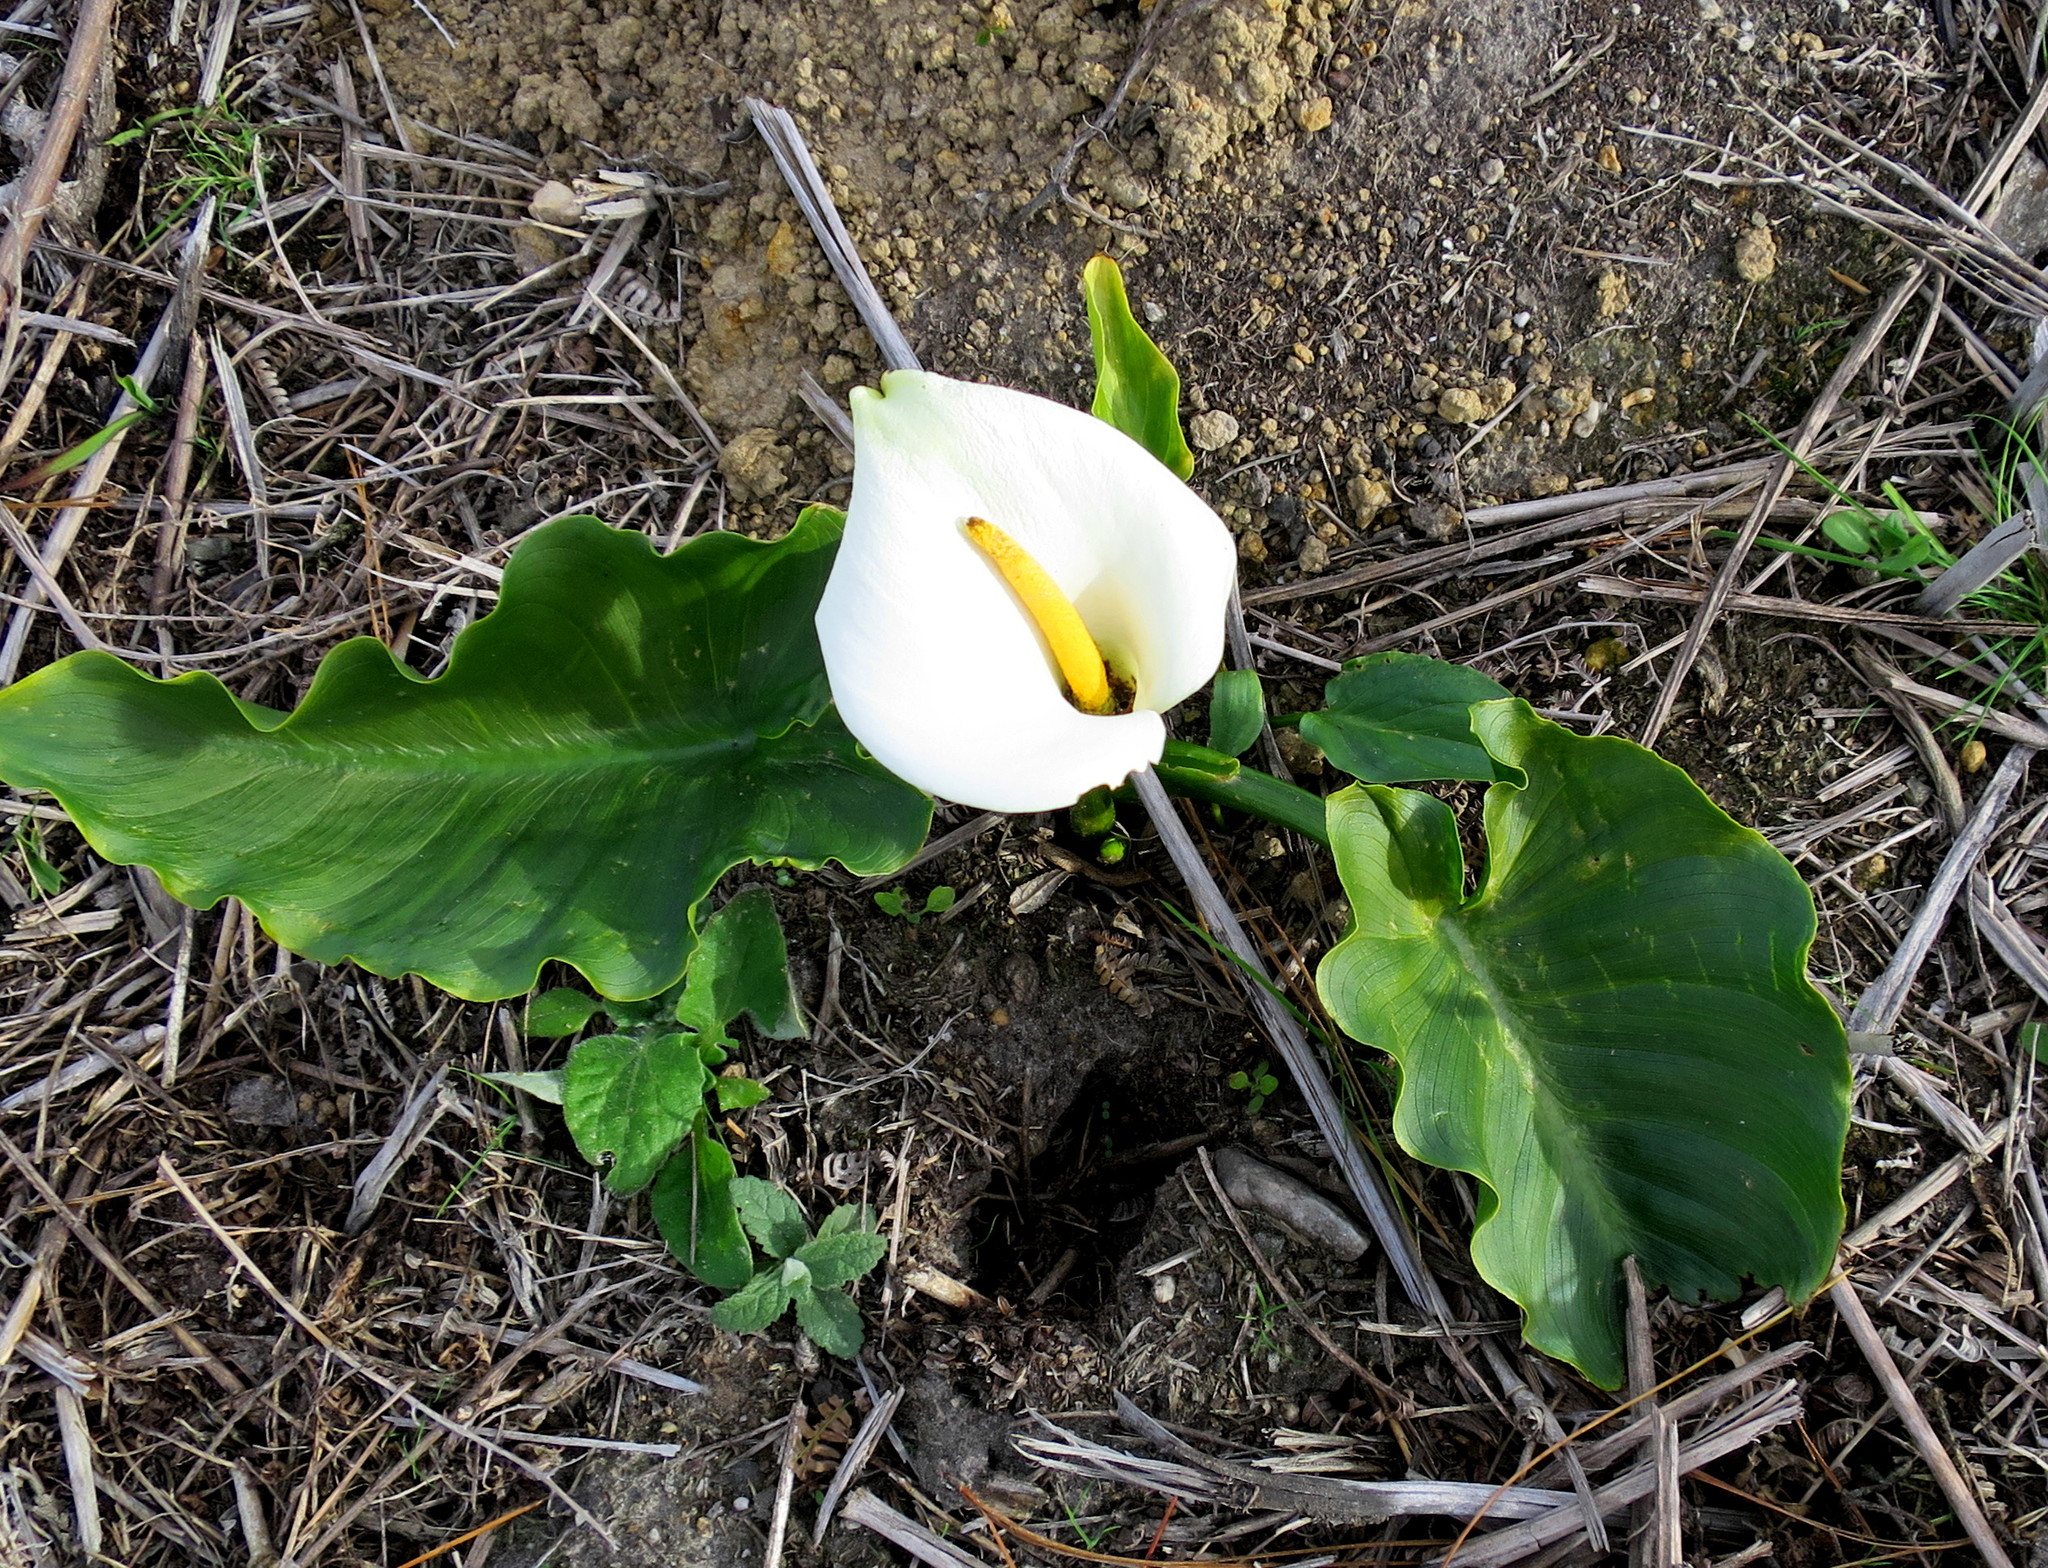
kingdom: Plantae
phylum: Tracheophyta
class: Liliopsida
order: Alismatales
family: Araceae
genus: Zantedeschia
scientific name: Zantedeschia aethiopica
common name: Altar-lily
